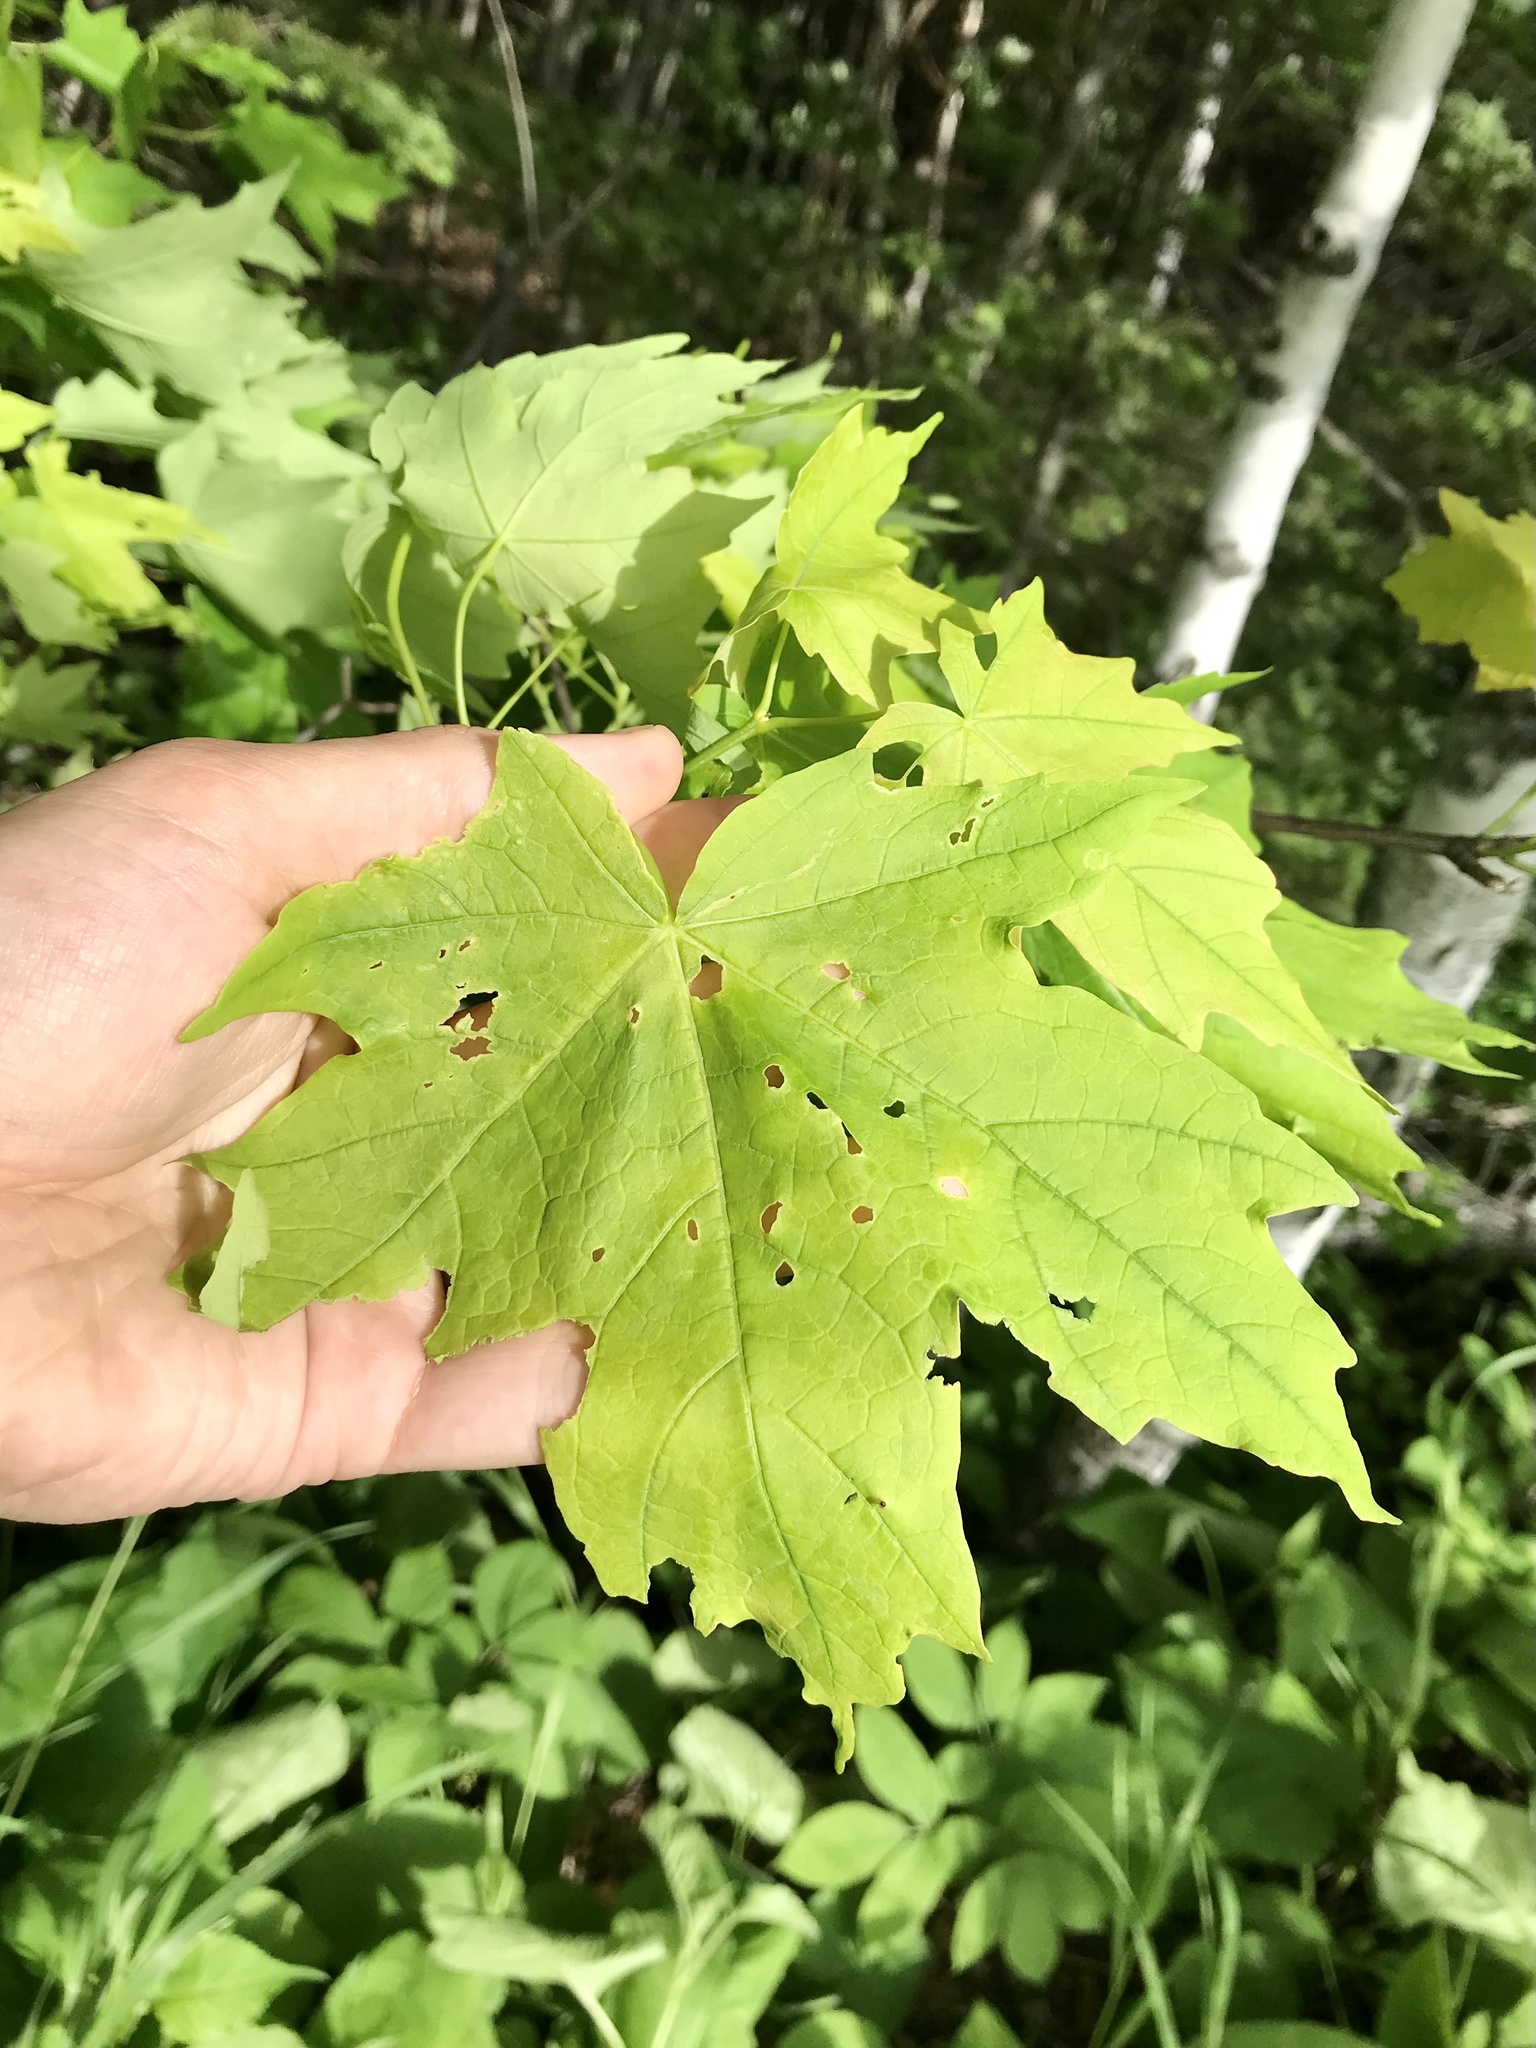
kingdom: Plantae
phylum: Tracheophyta
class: Magnoliopsida
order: Sapindales
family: Sapindaceae
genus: Acer
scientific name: Acer saccharum
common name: Sugar maple
